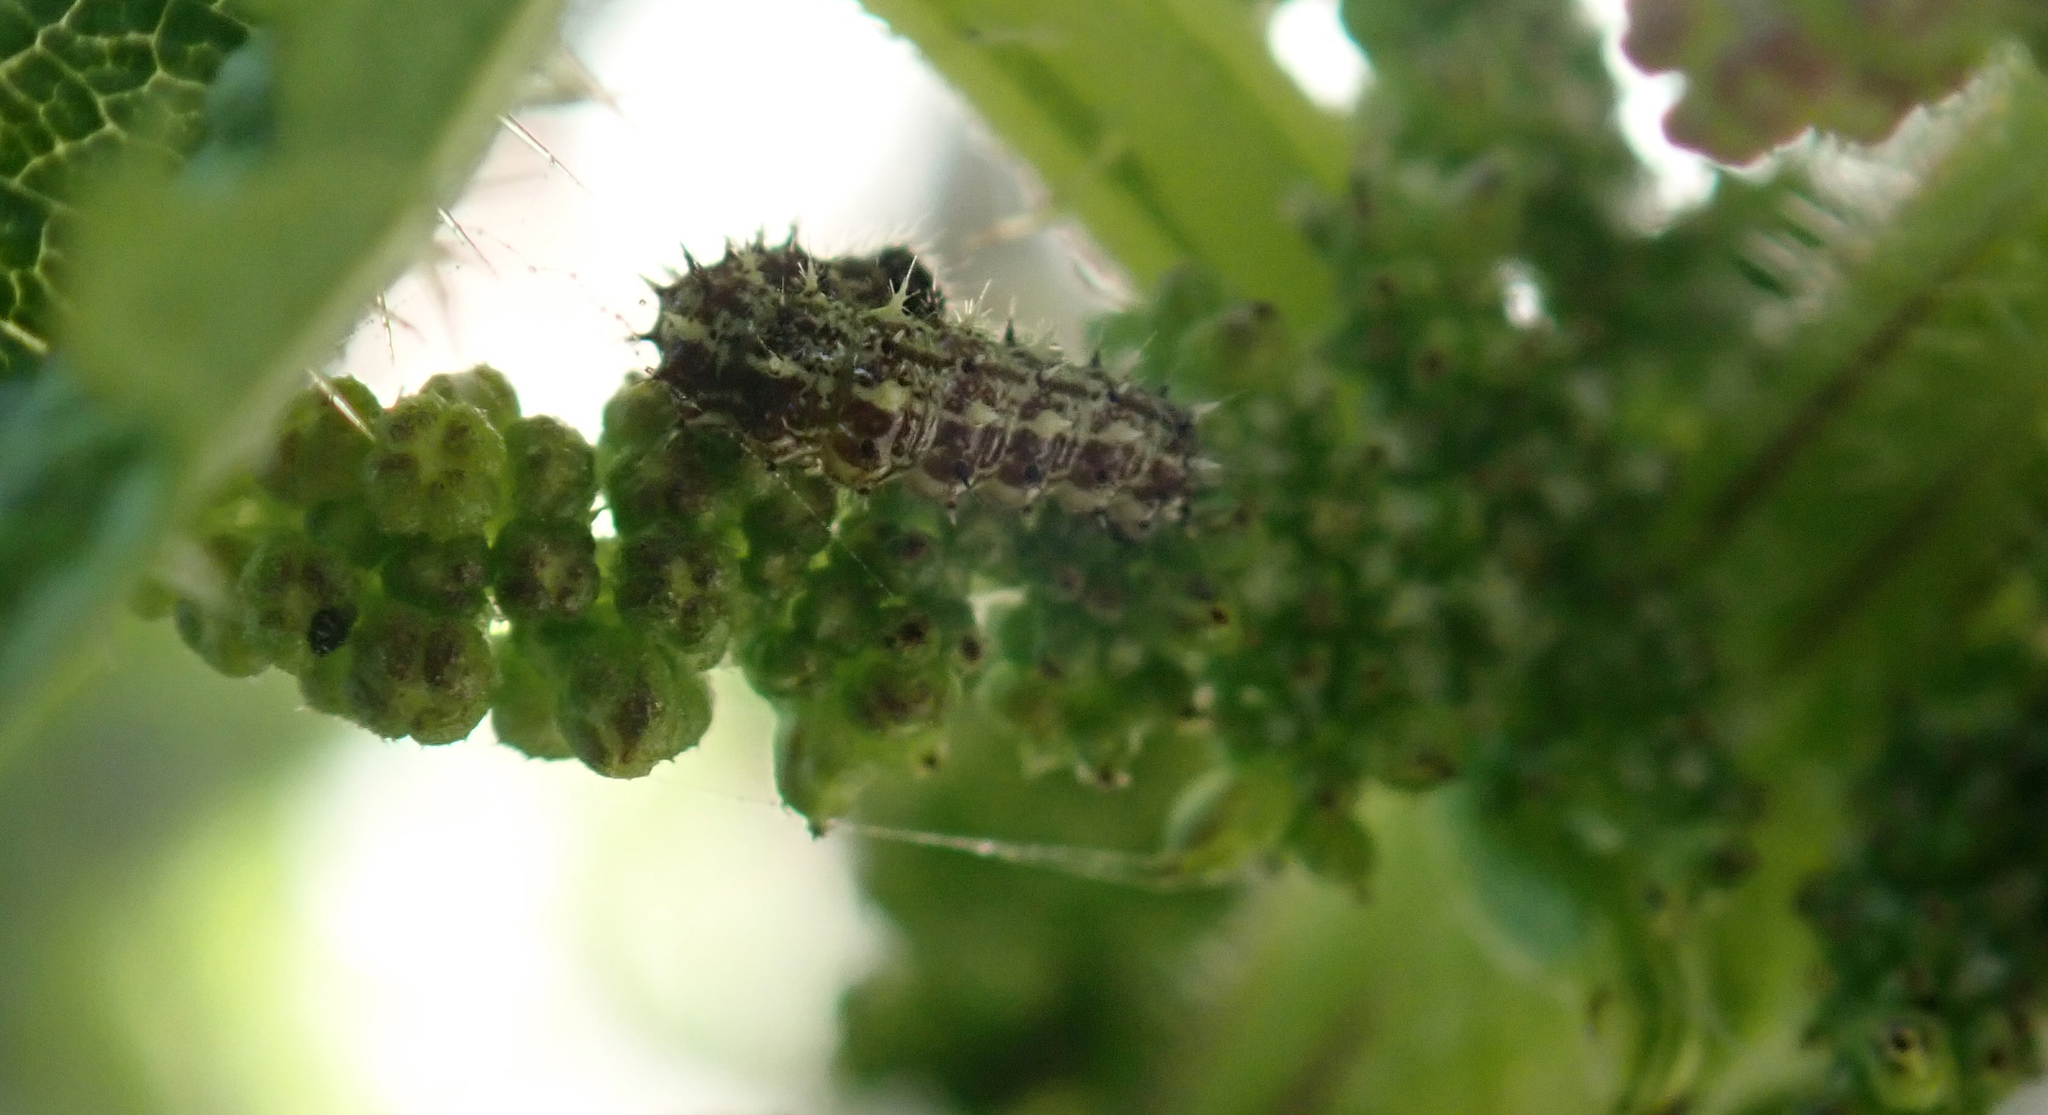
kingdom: Animalia
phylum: Arthropoda
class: Insecta
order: Lepidoptera
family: Nymphalidae
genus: Vanessa
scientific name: Vanessa gonerilla
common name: New zealand red admiral
